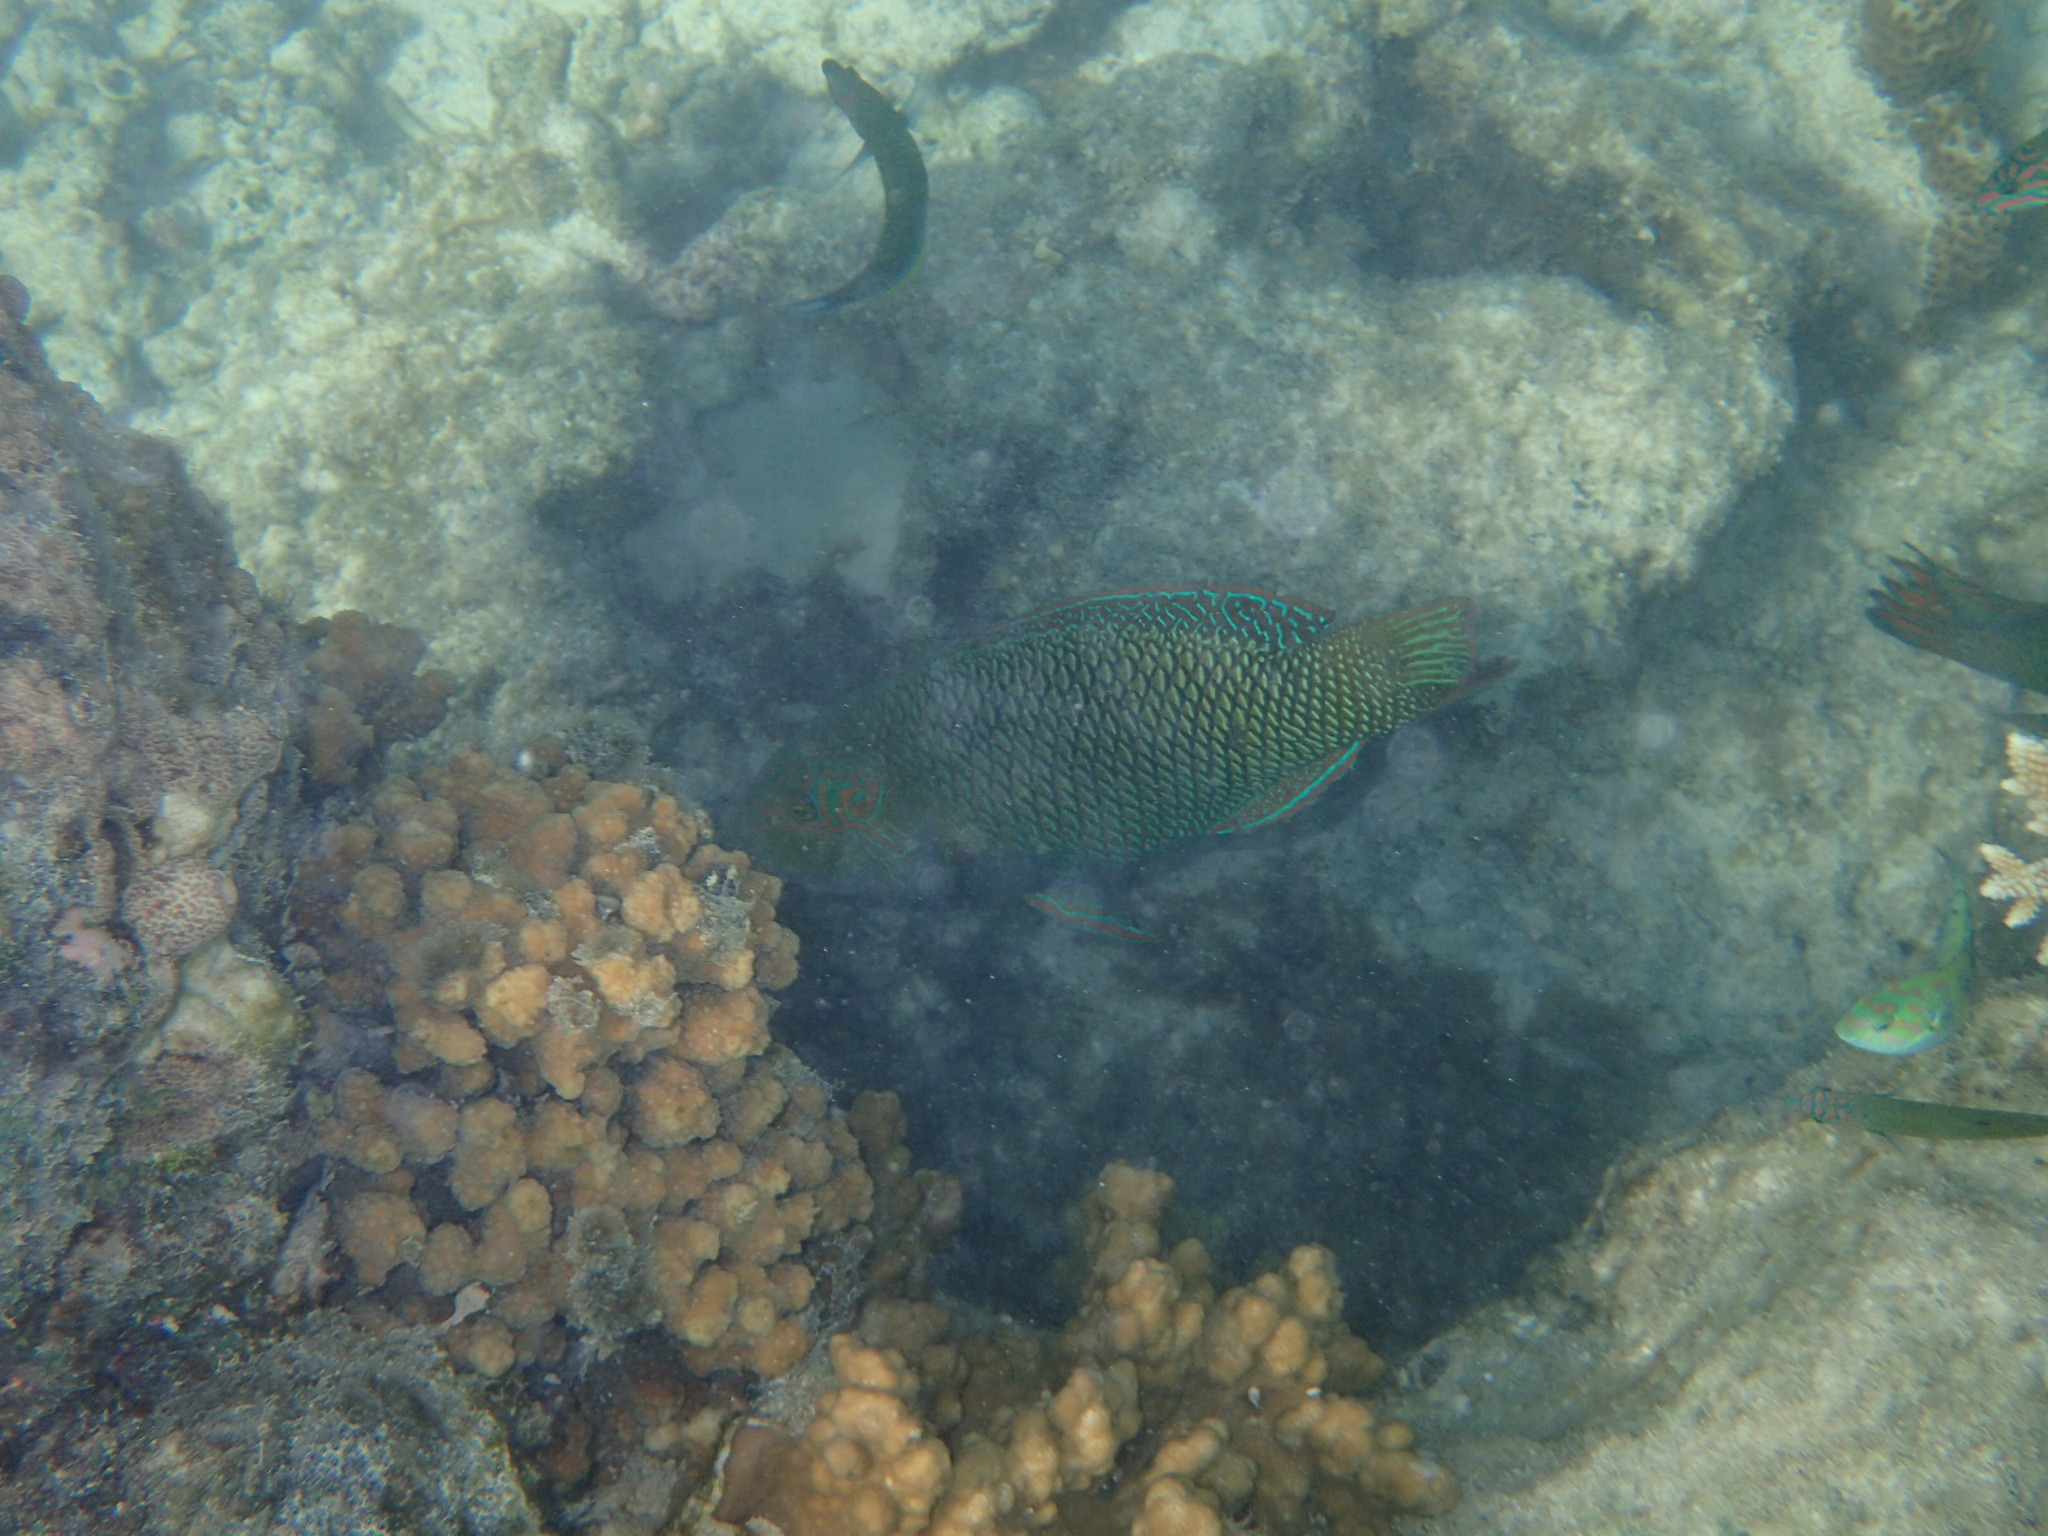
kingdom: Animalia
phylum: Chordata
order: Perciformes
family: Labridae
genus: Hemigymnus
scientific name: Hemigymnus melapterus
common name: Blackeye thicklip
